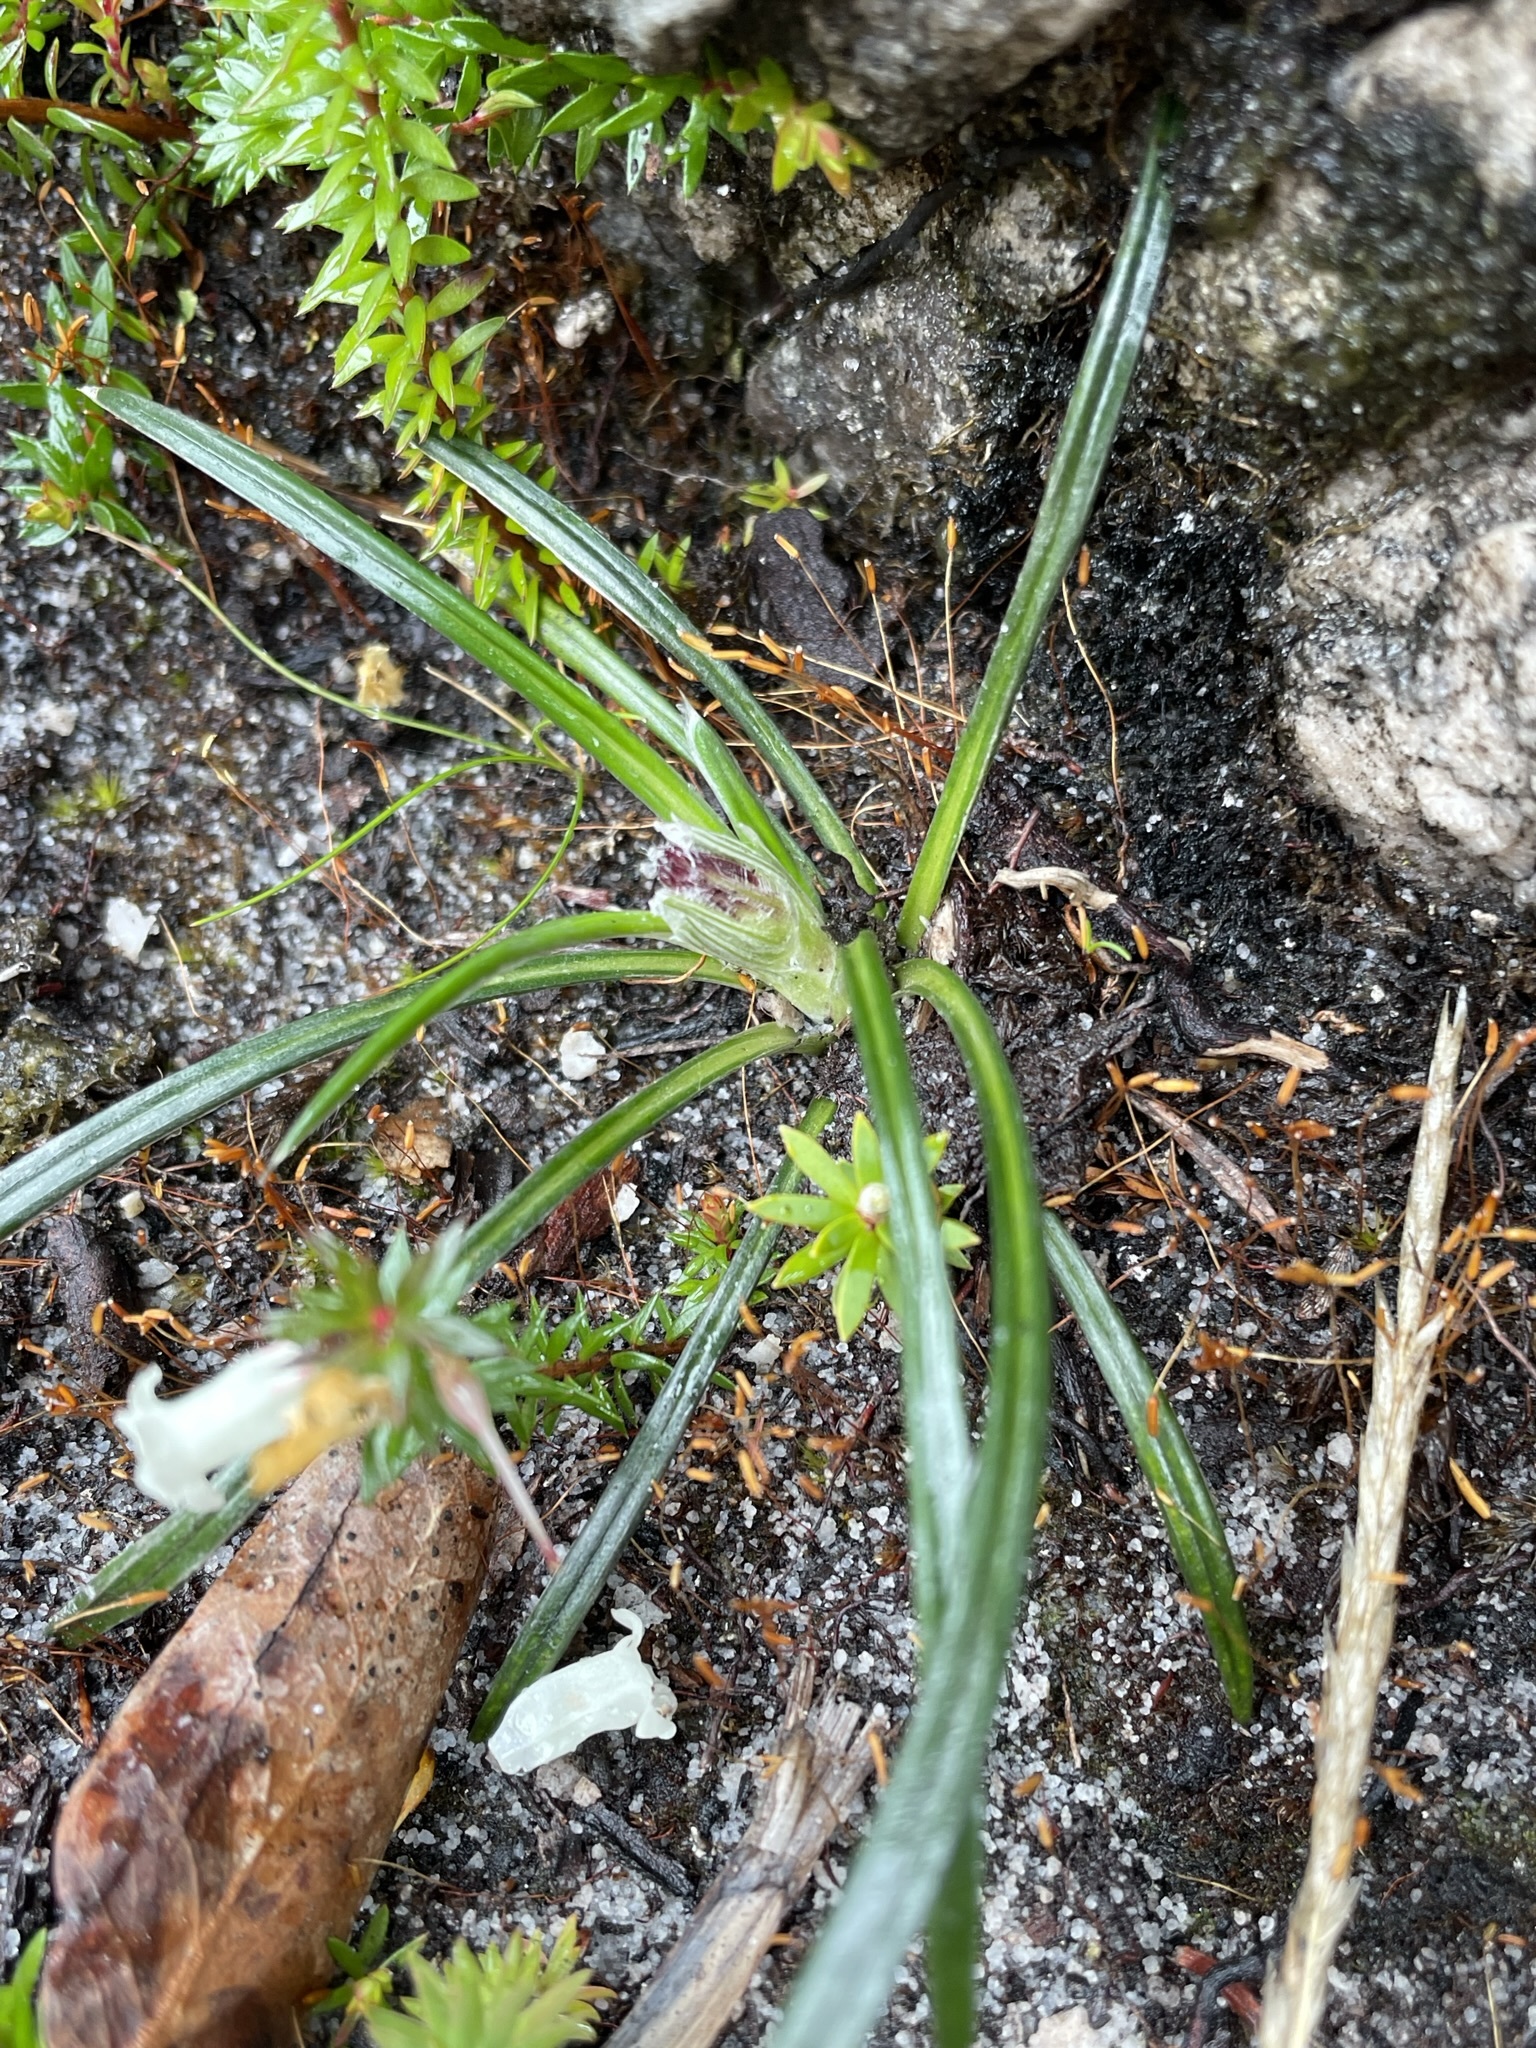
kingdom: Plantae
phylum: Tracheophyta
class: Magnoliopsida
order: Asterales
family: Asteraceae
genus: Celmisia
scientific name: Celmisia asteliifolia
